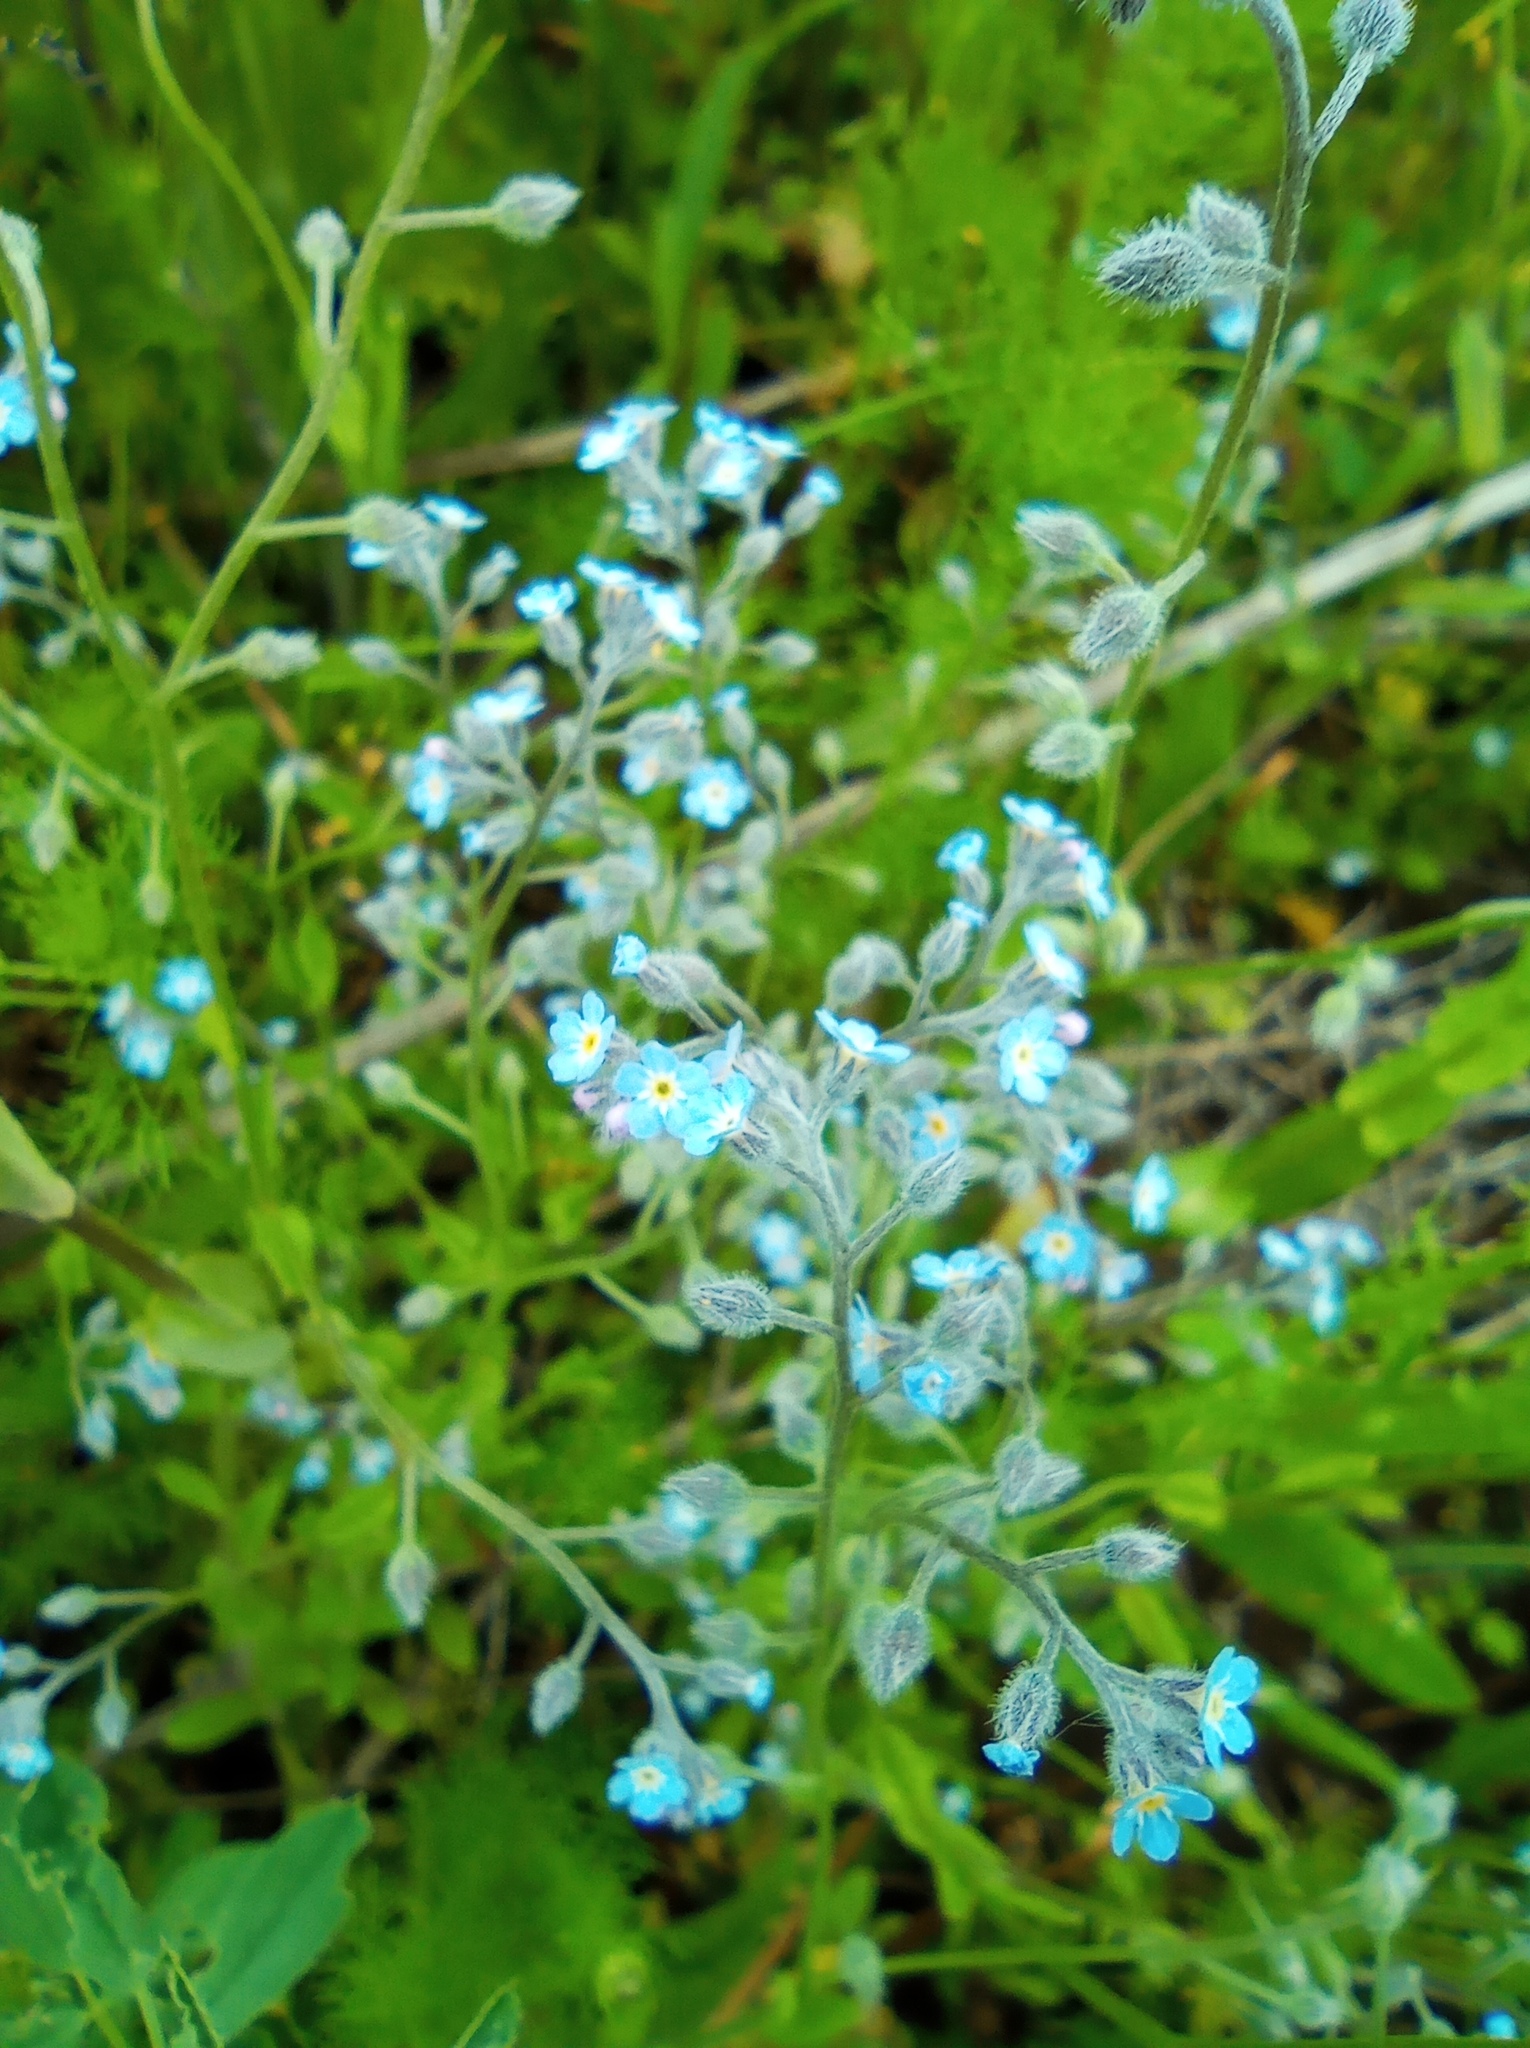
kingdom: Plantae
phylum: Tracheophyta
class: Magnoliopsida
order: Boraginales
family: Boraginaceae
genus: Myosotis
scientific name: Myosotis arvensis
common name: Field forget-me-not
